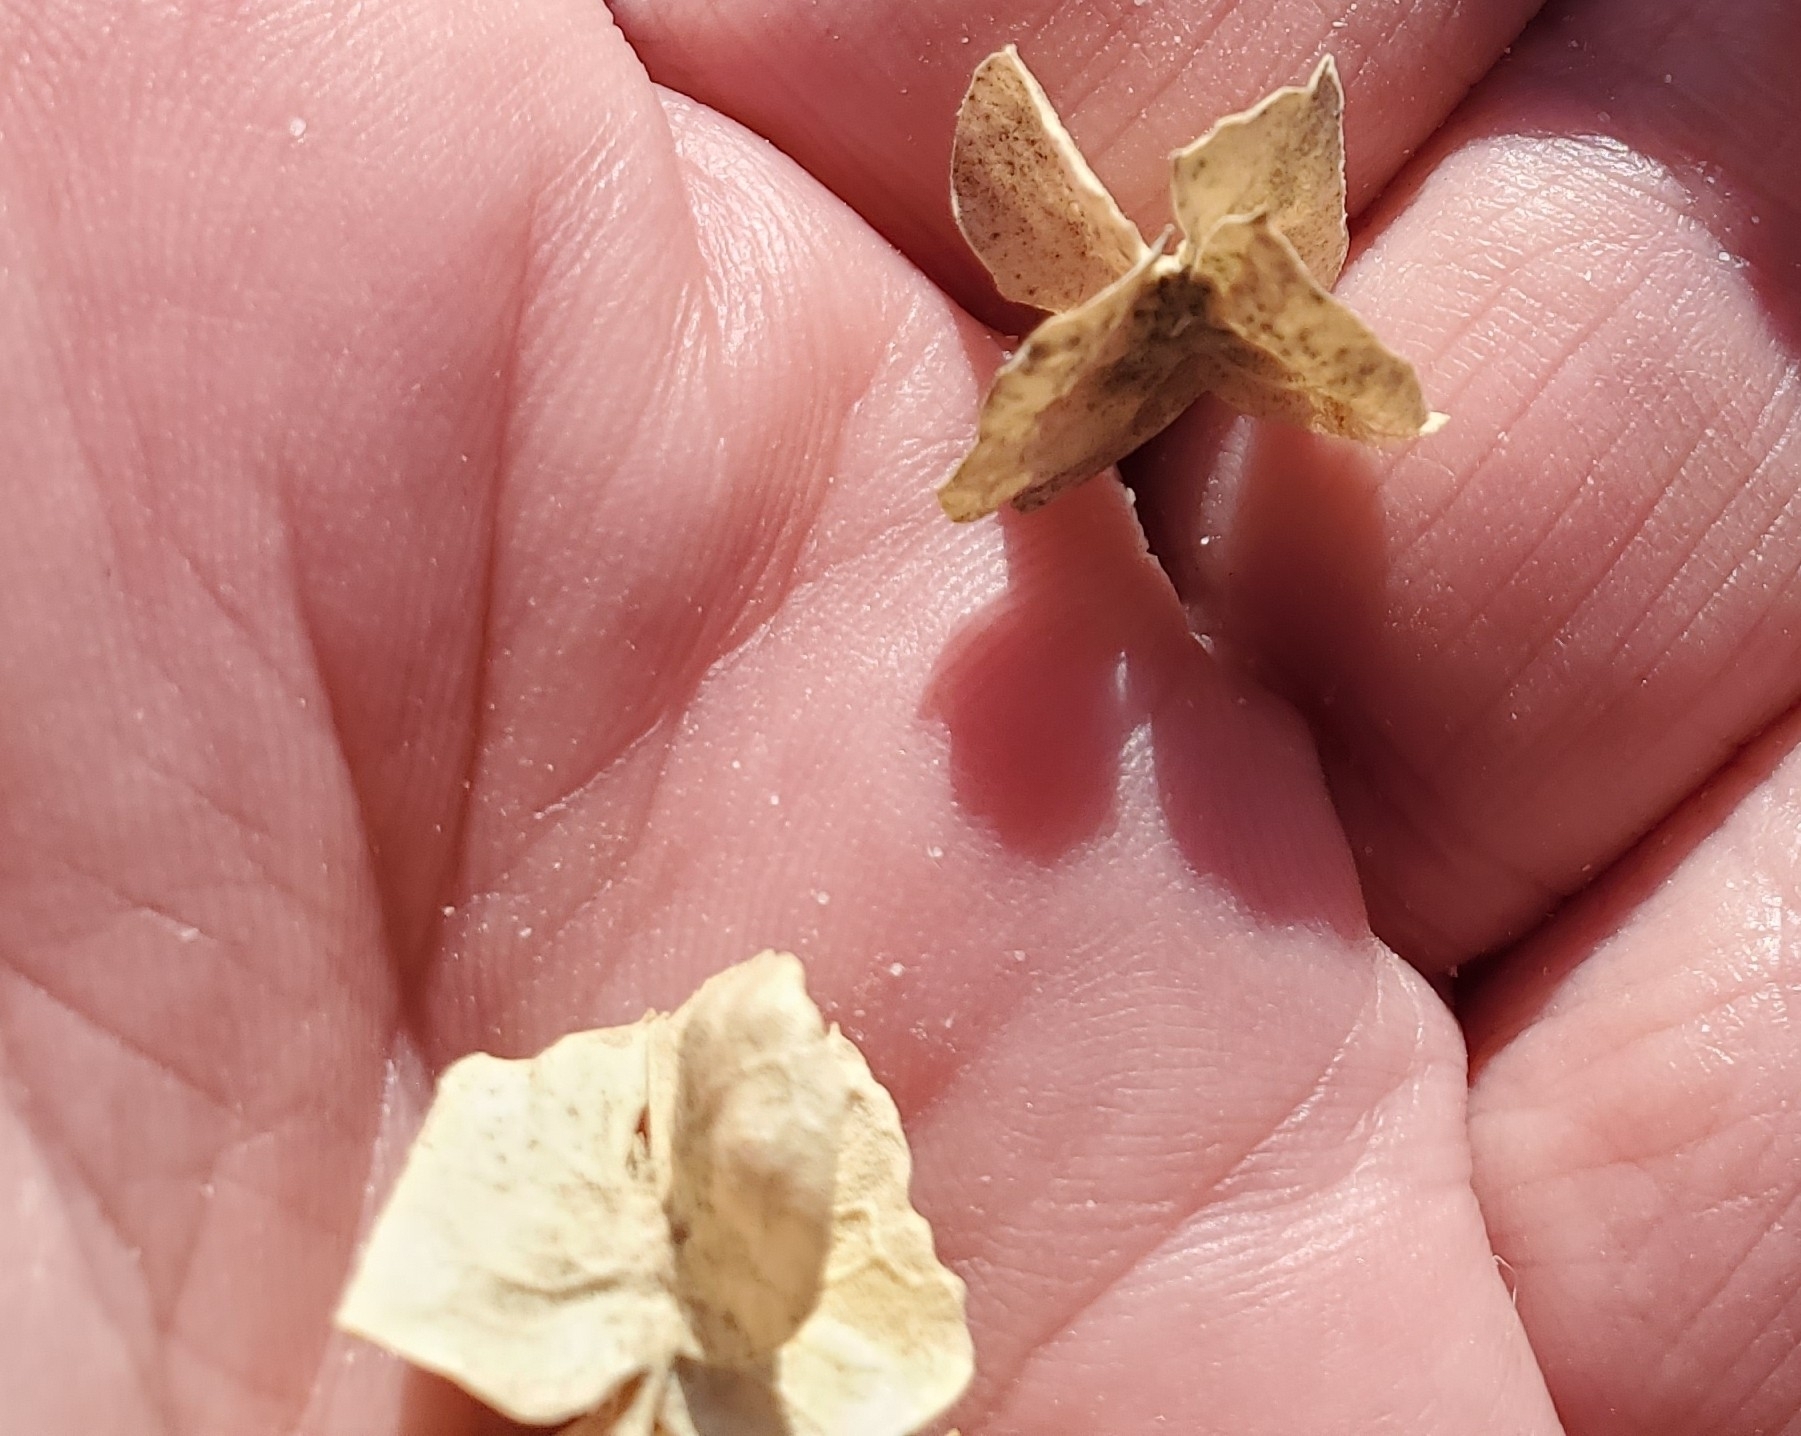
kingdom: Plantae
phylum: Tracheophyta
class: Magnoliopsida
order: Caryophyllales
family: Amaranthaceae
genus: Atriplex
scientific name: Atriplex canescens
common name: Four-wing saltbush
